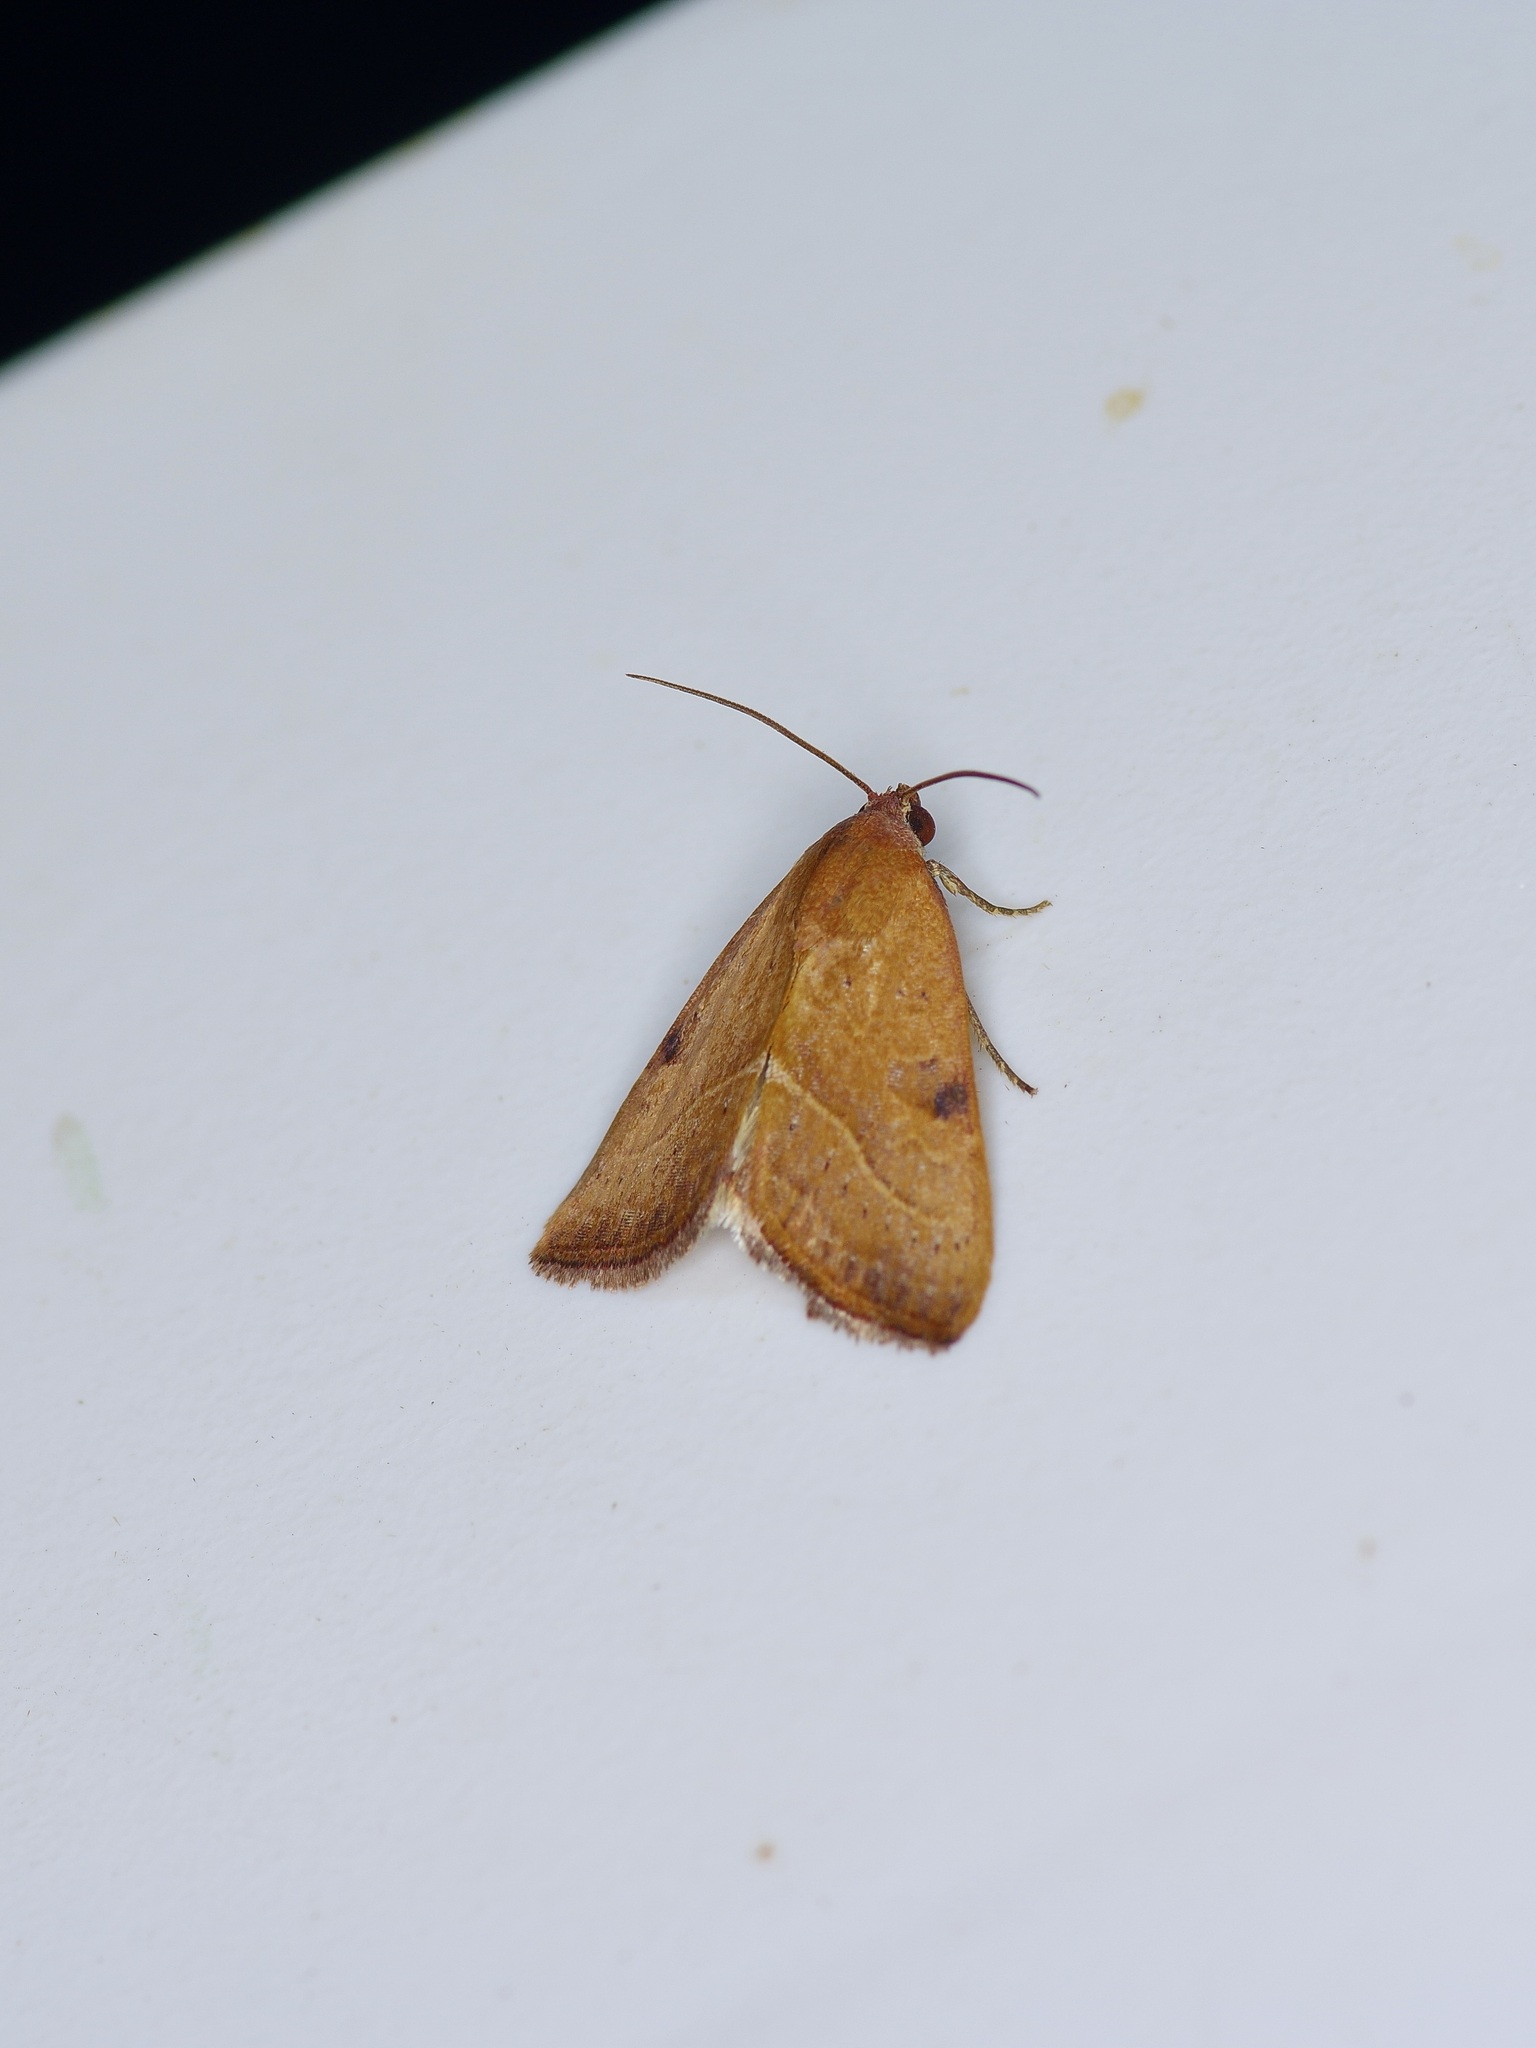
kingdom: Animalia
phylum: Arthropoda
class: Insecta
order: Lepidoptera
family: Noctuidae
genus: Galgula
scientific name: Galgula partita
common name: Wedgeling
